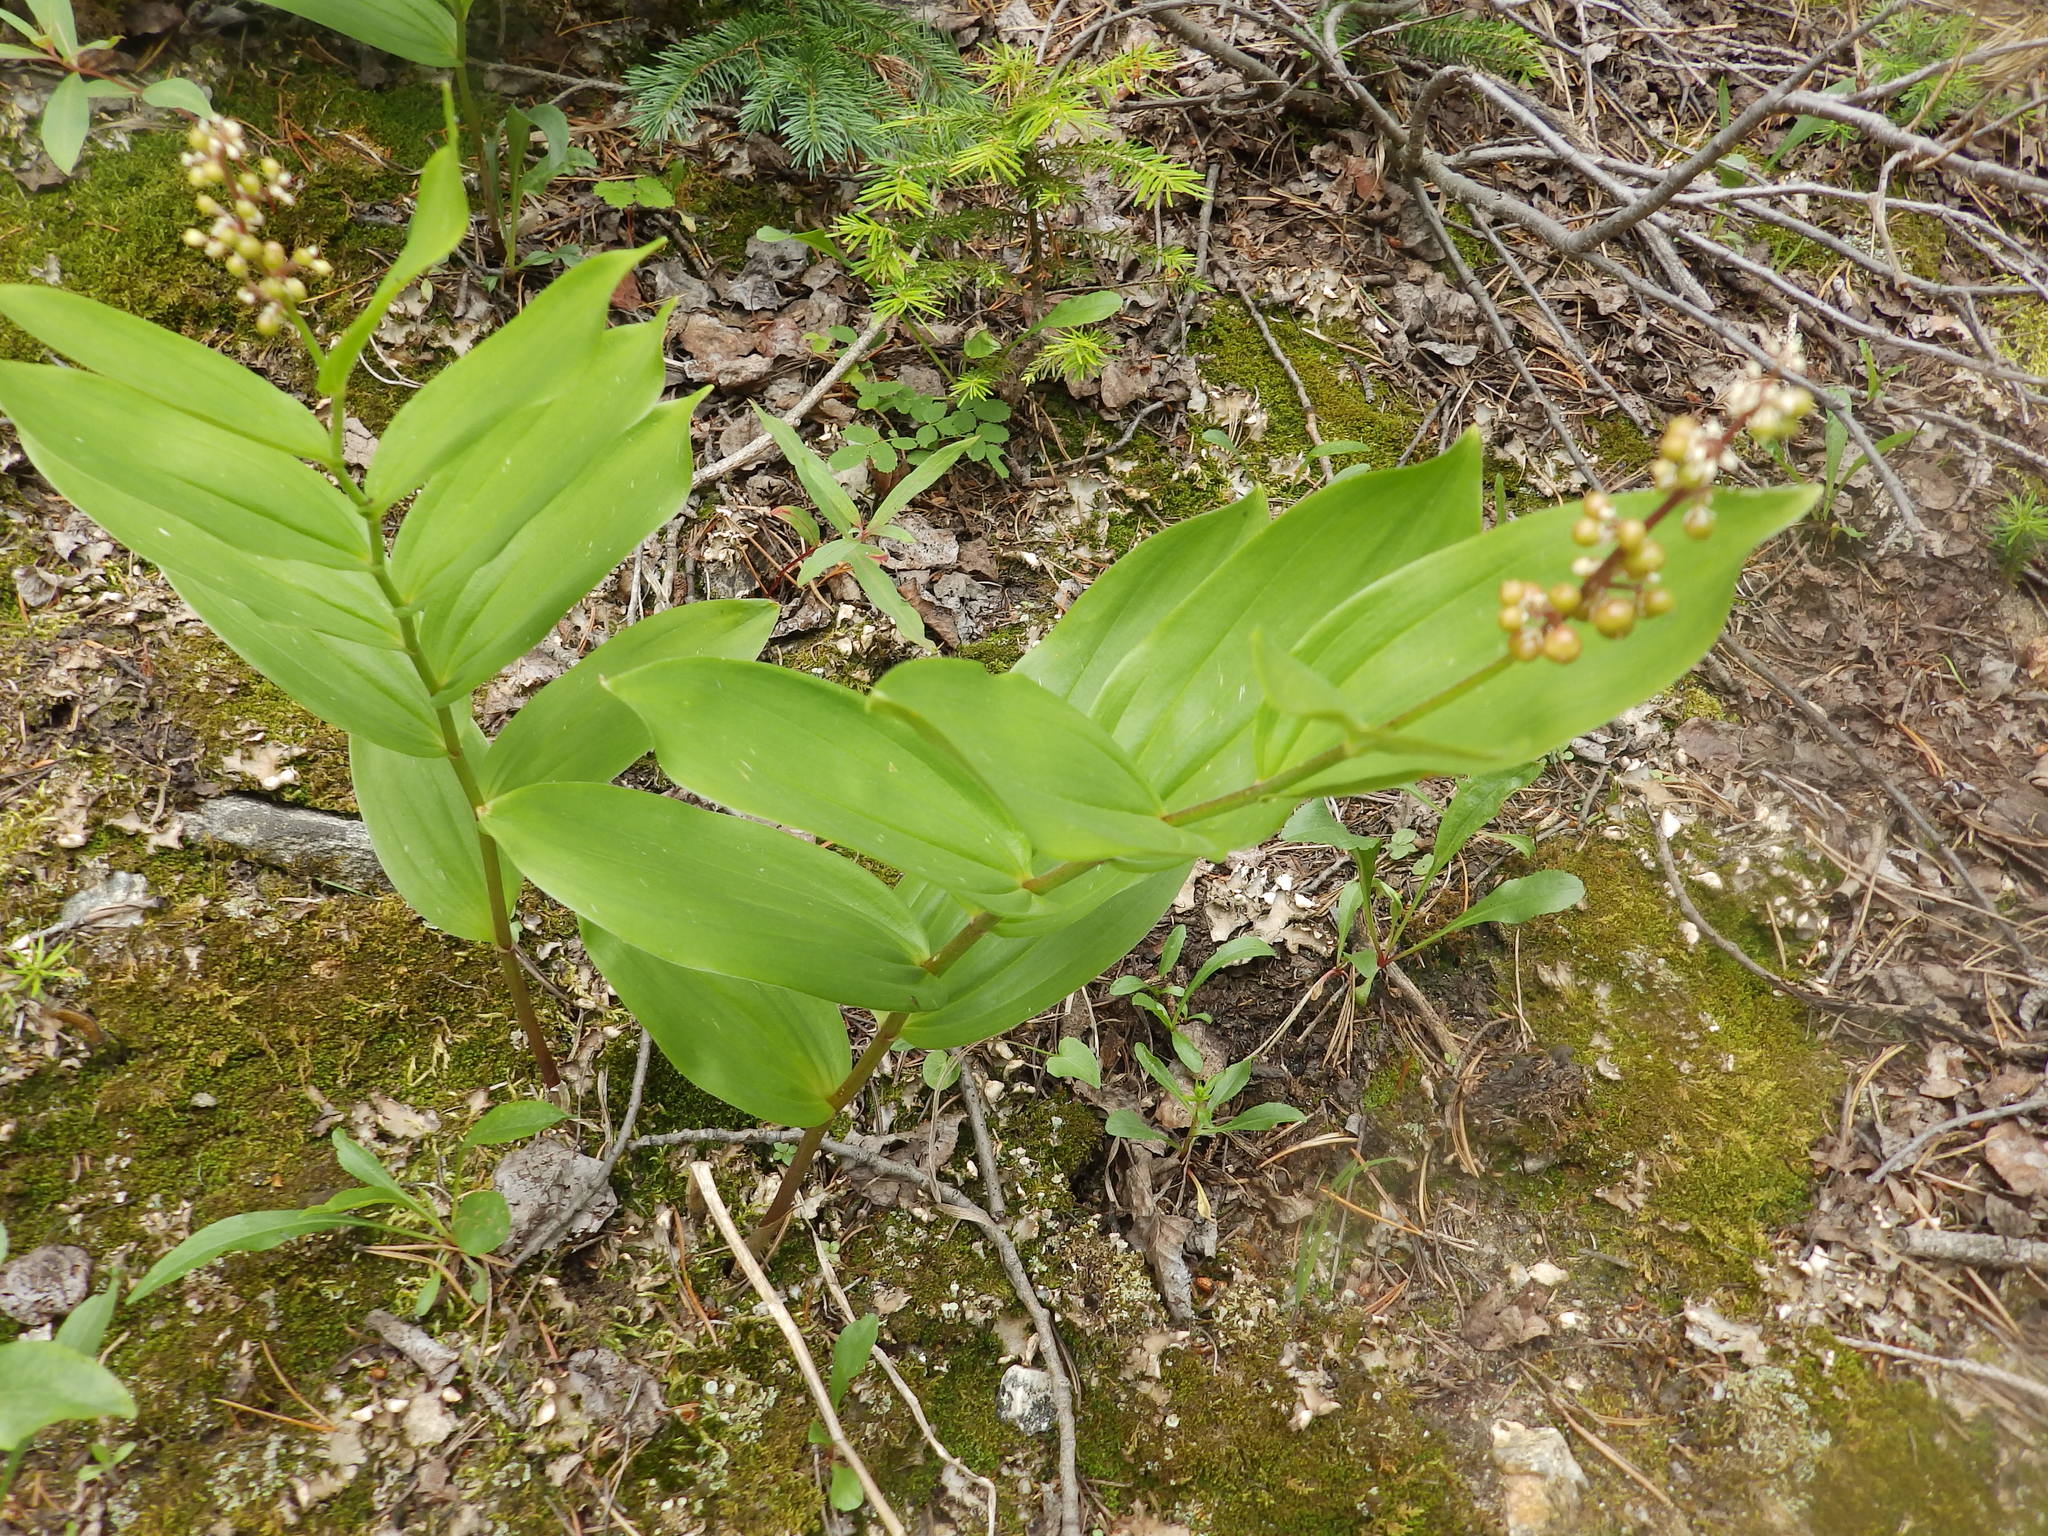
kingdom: Plantae
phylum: Tracheophyta
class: Liliopsida
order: Asparagales
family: Asparagaceae
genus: Maianthemum
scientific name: Maianthemum racemosum
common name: False spikenard
